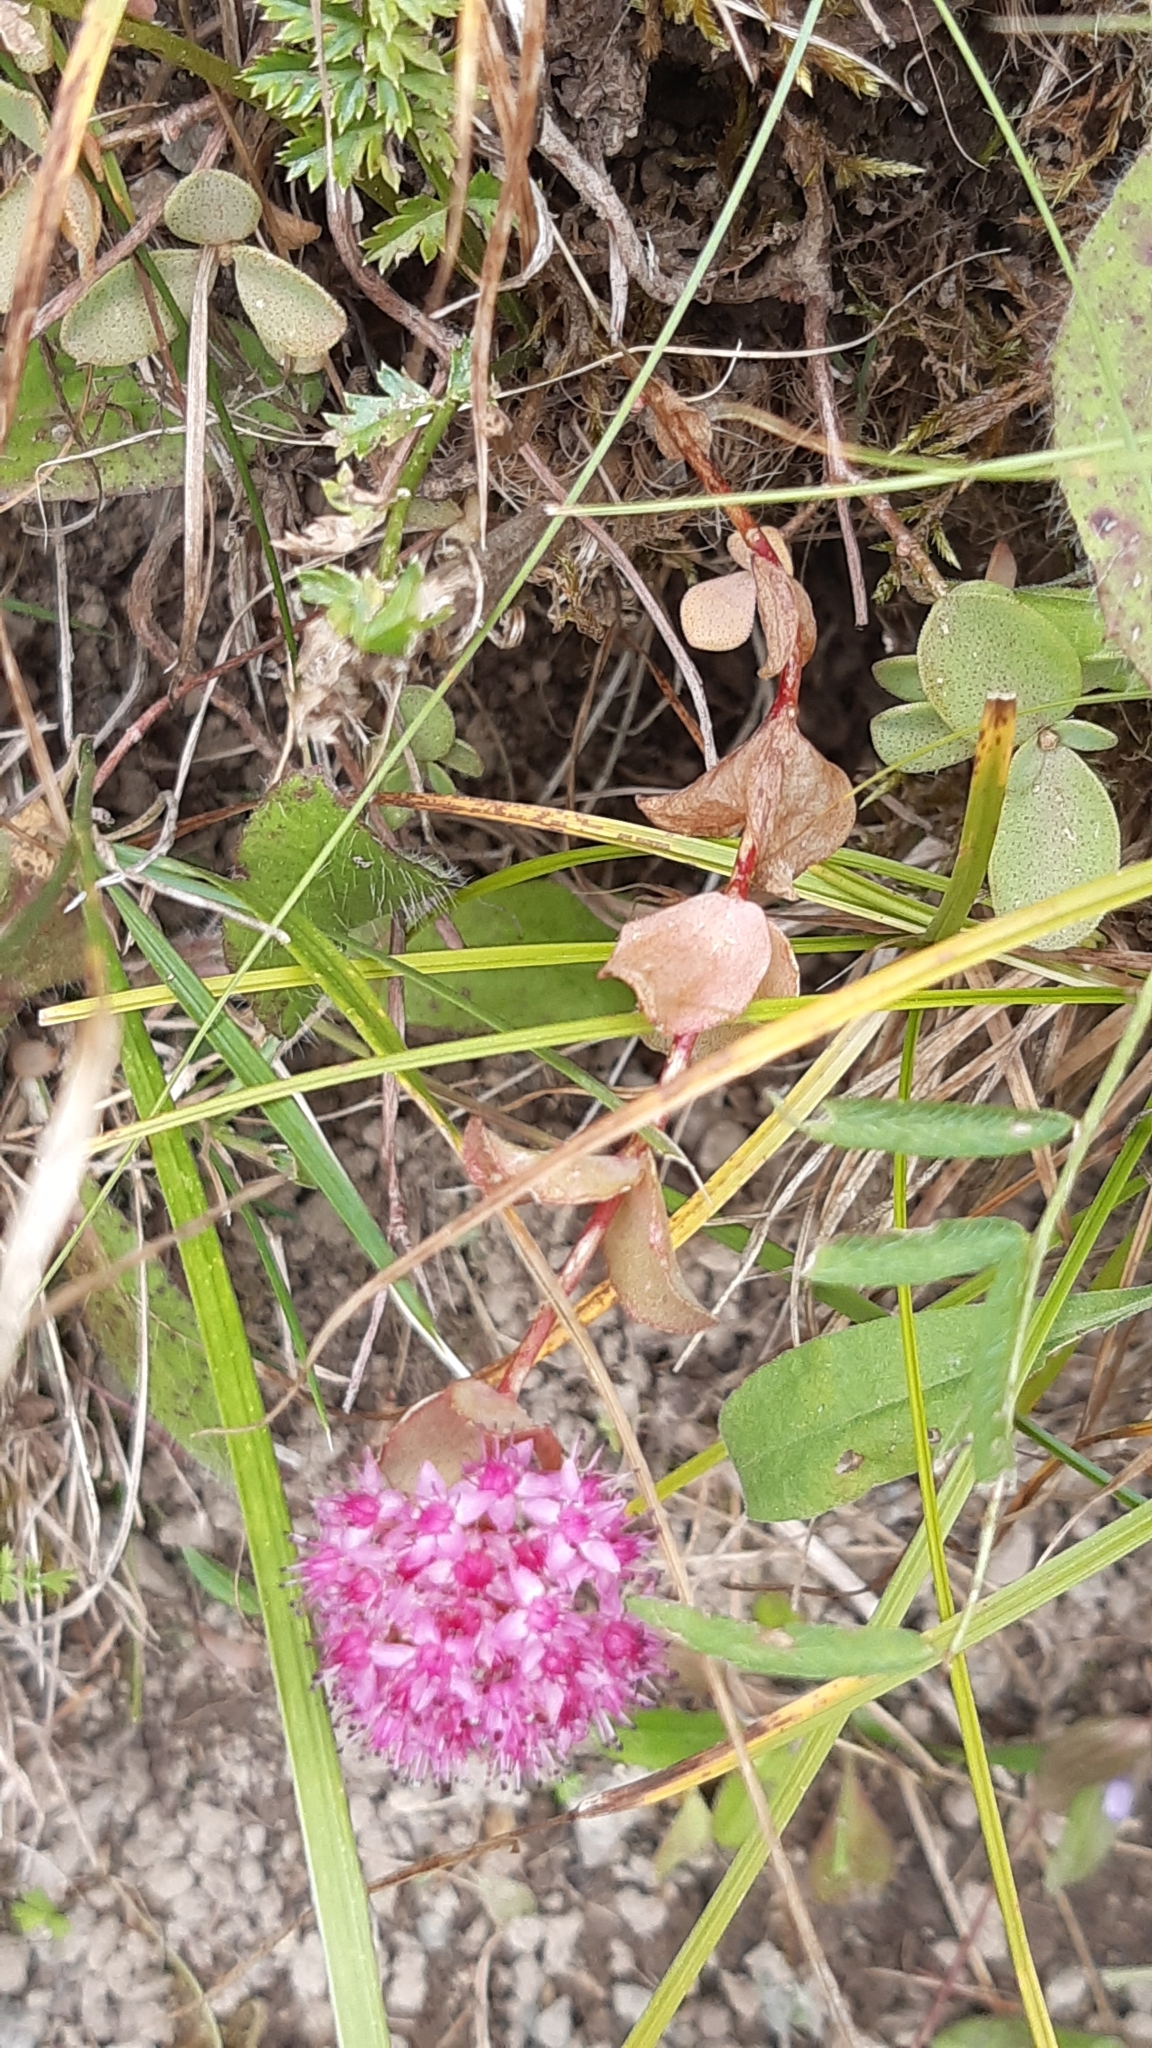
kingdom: Plantae
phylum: Tracheophyta
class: Magnoliopsida
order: Saxifragales
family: Crassulaceae
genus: Hylotelephium
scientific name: Hylotelephium ewersii
